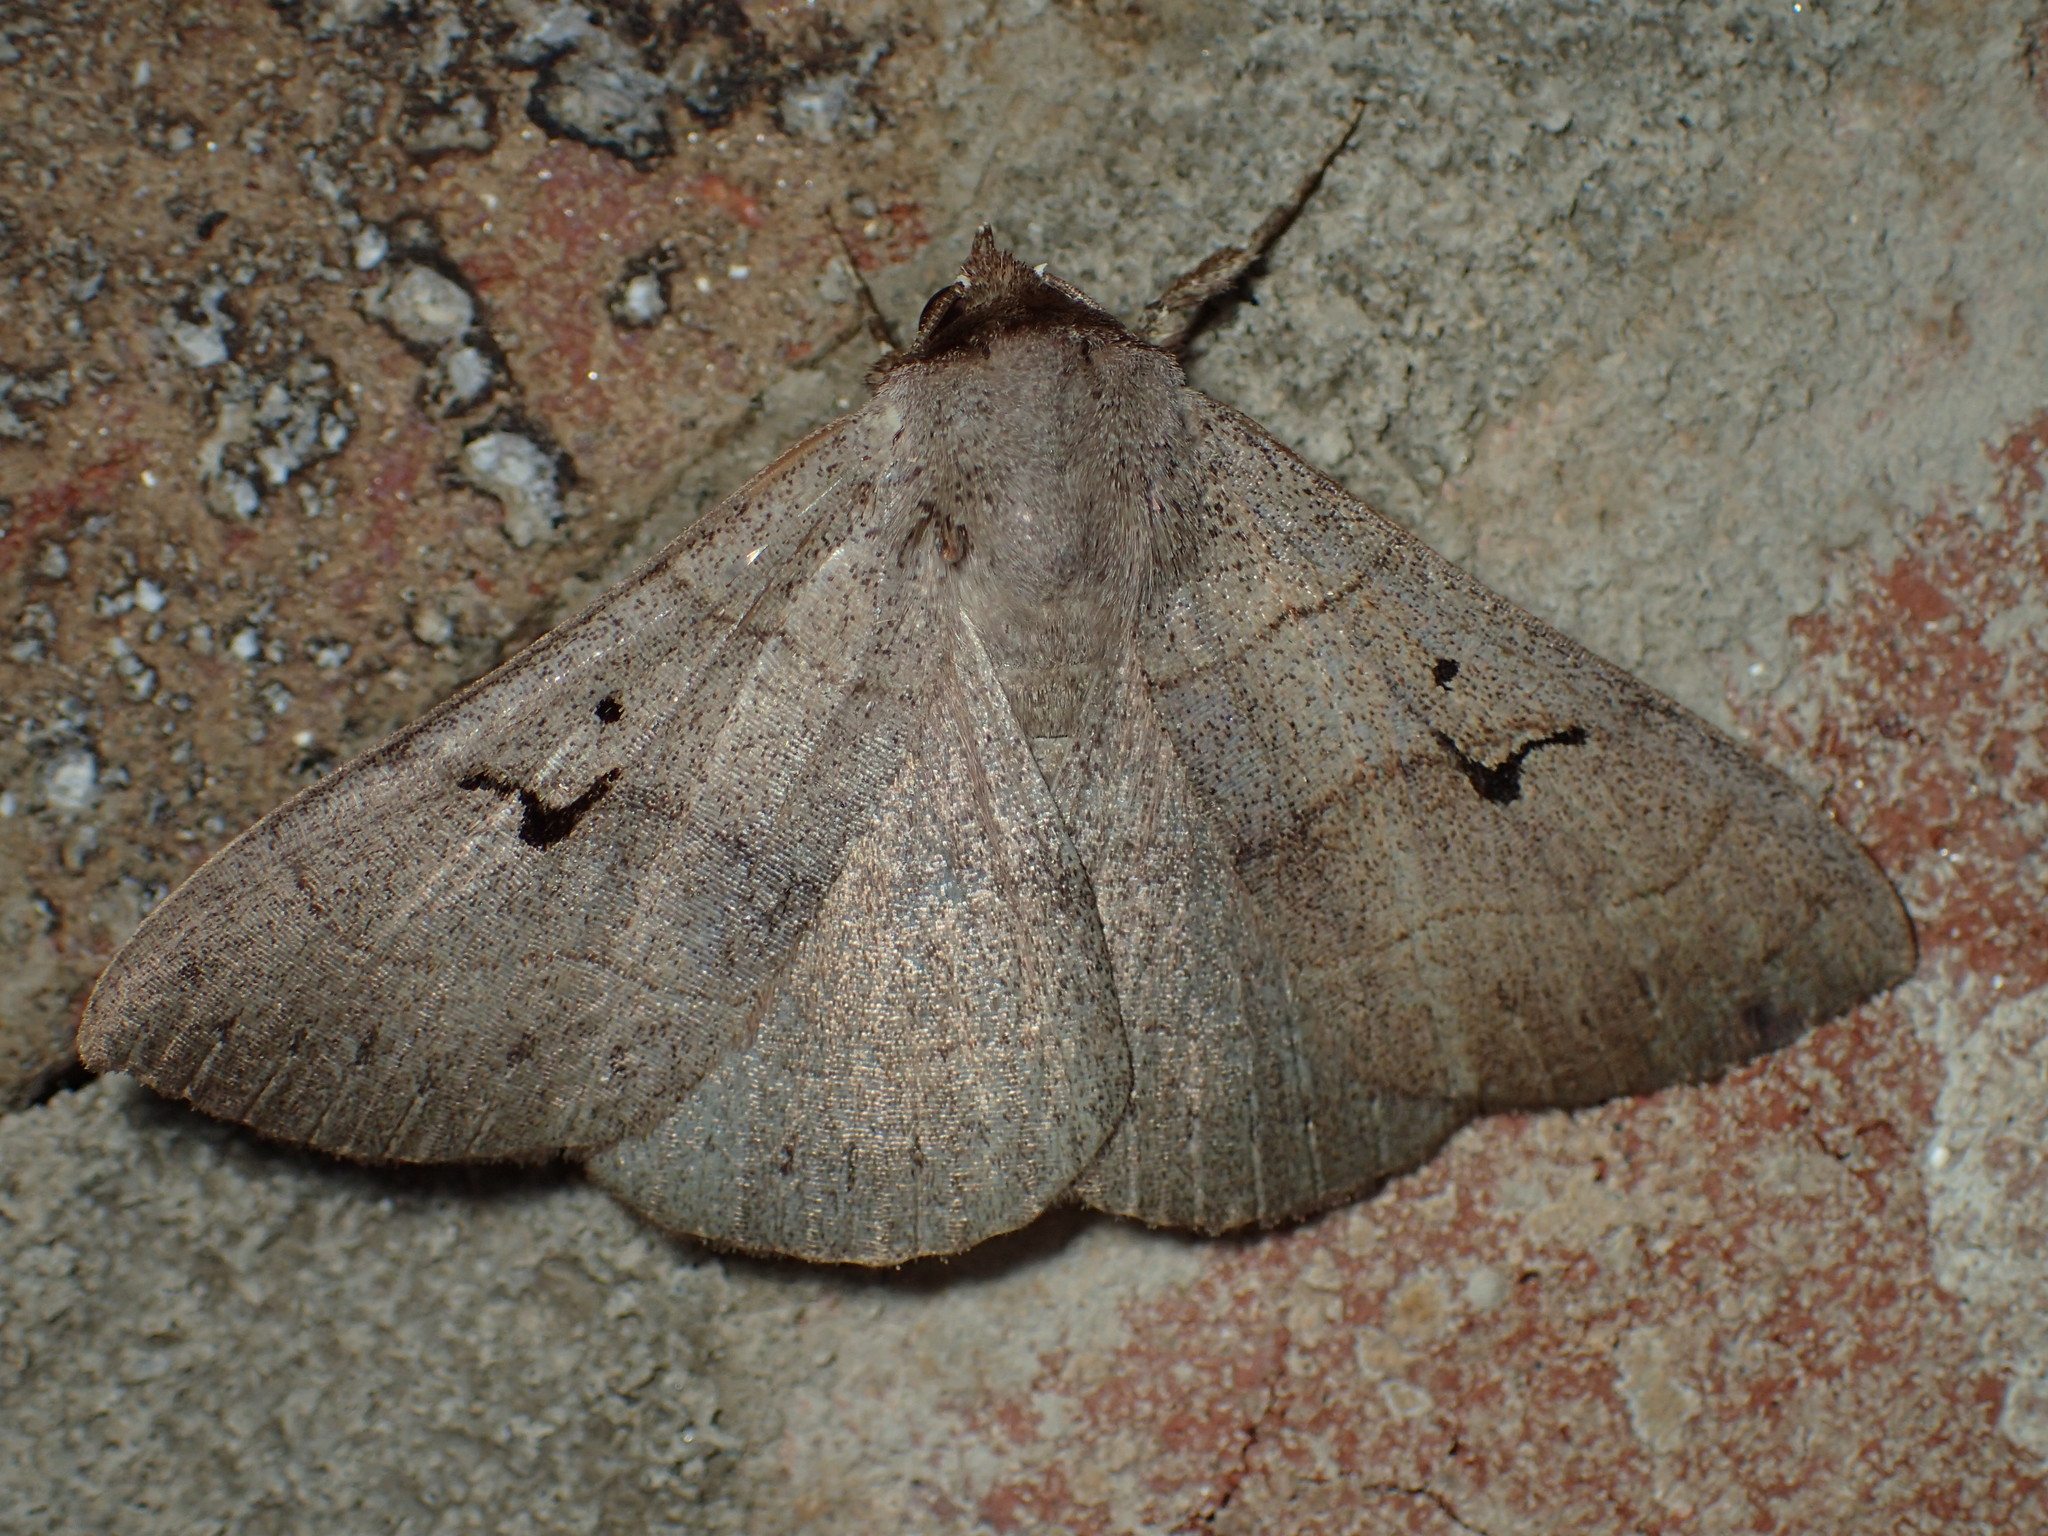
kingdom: Animalia
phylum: Arthropoda
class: Insecta
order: Lepidoptera
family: Erebidae
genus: Panopoda
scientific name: Panopoda carneicosta
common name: Brown panopoda moth
